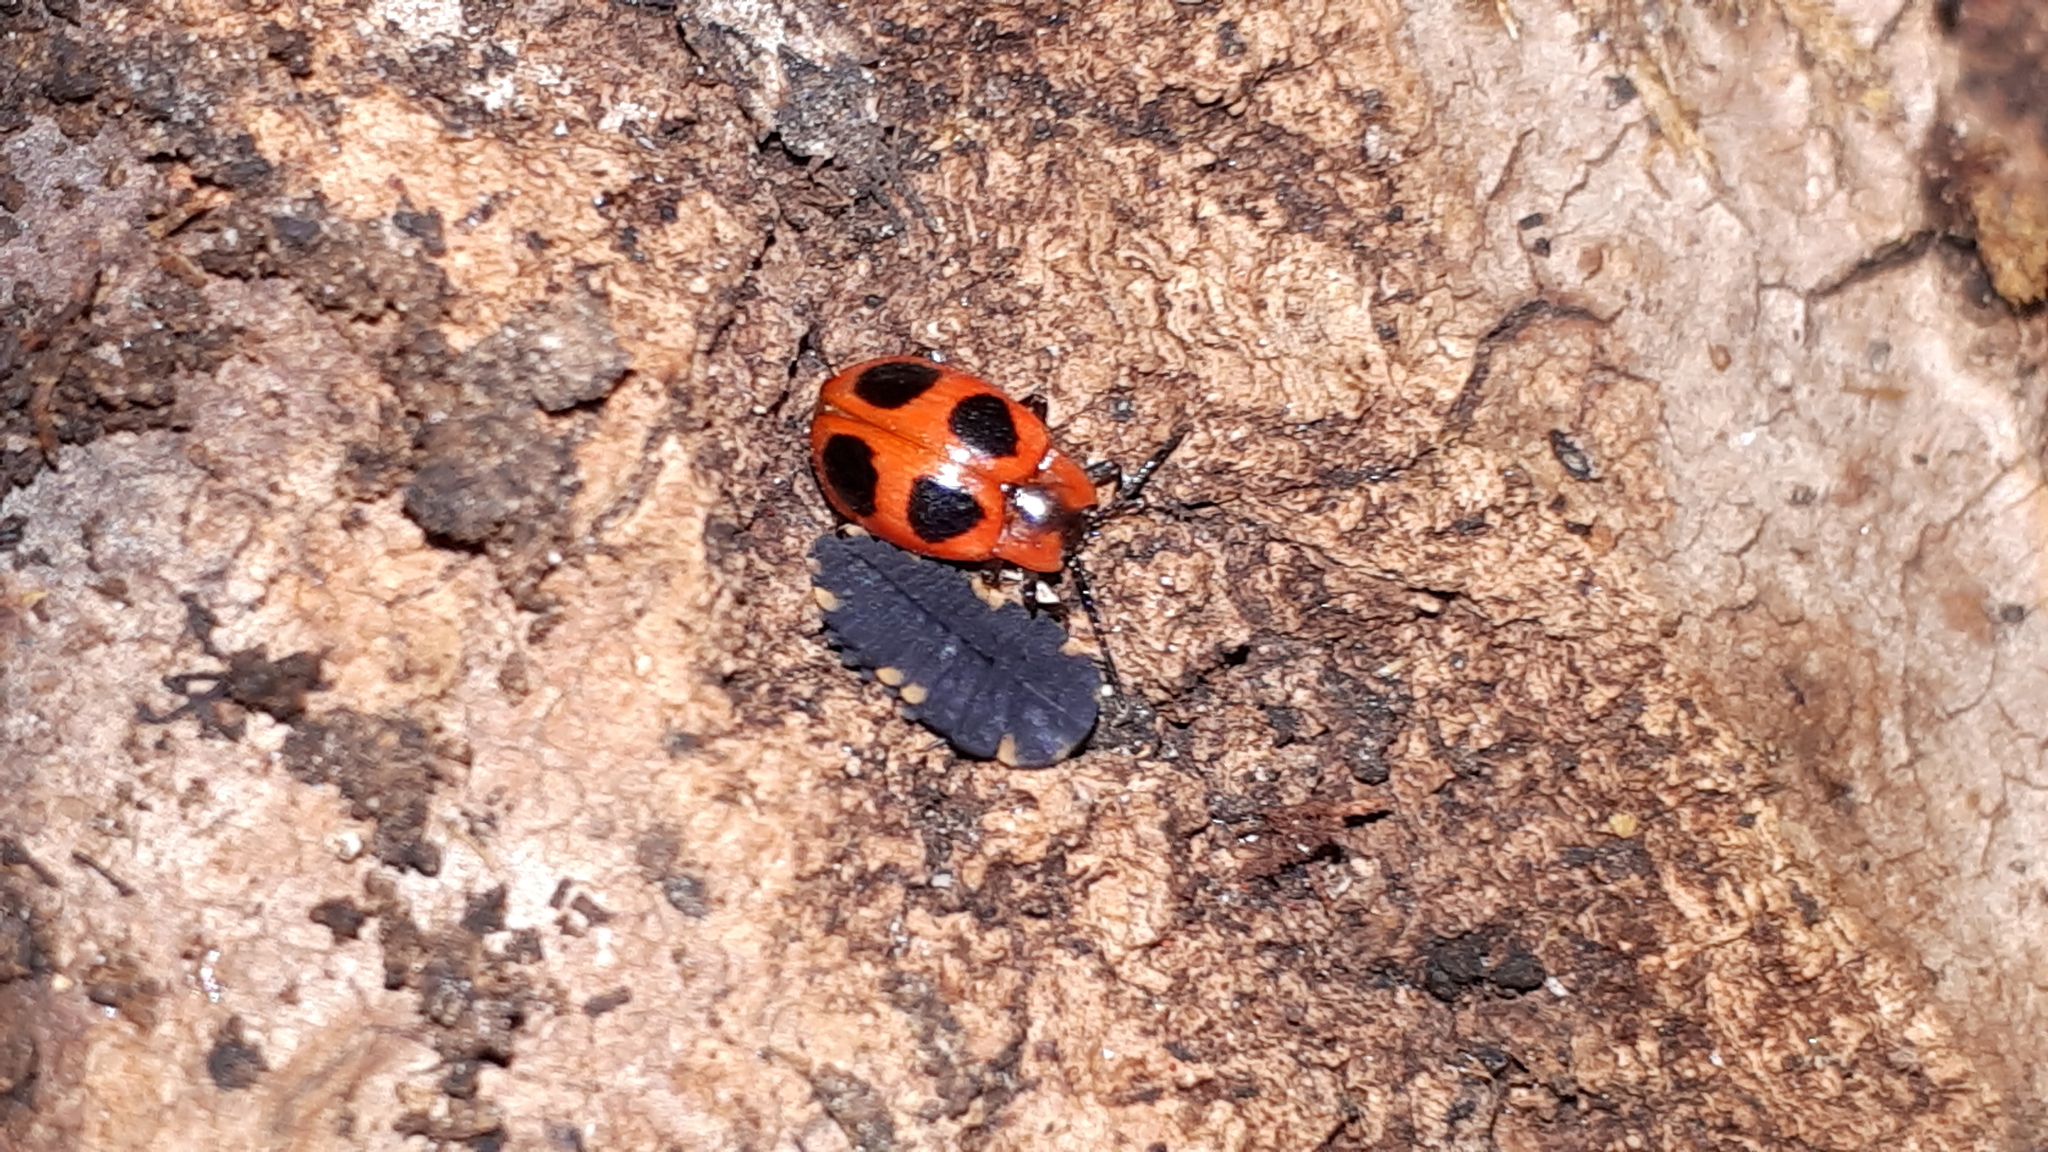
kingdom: Animalia
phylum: Arthropoda
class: Insecta
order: Coleoptera
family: Endomychidae
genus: Endomychus
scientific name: Endomychus coccineus
